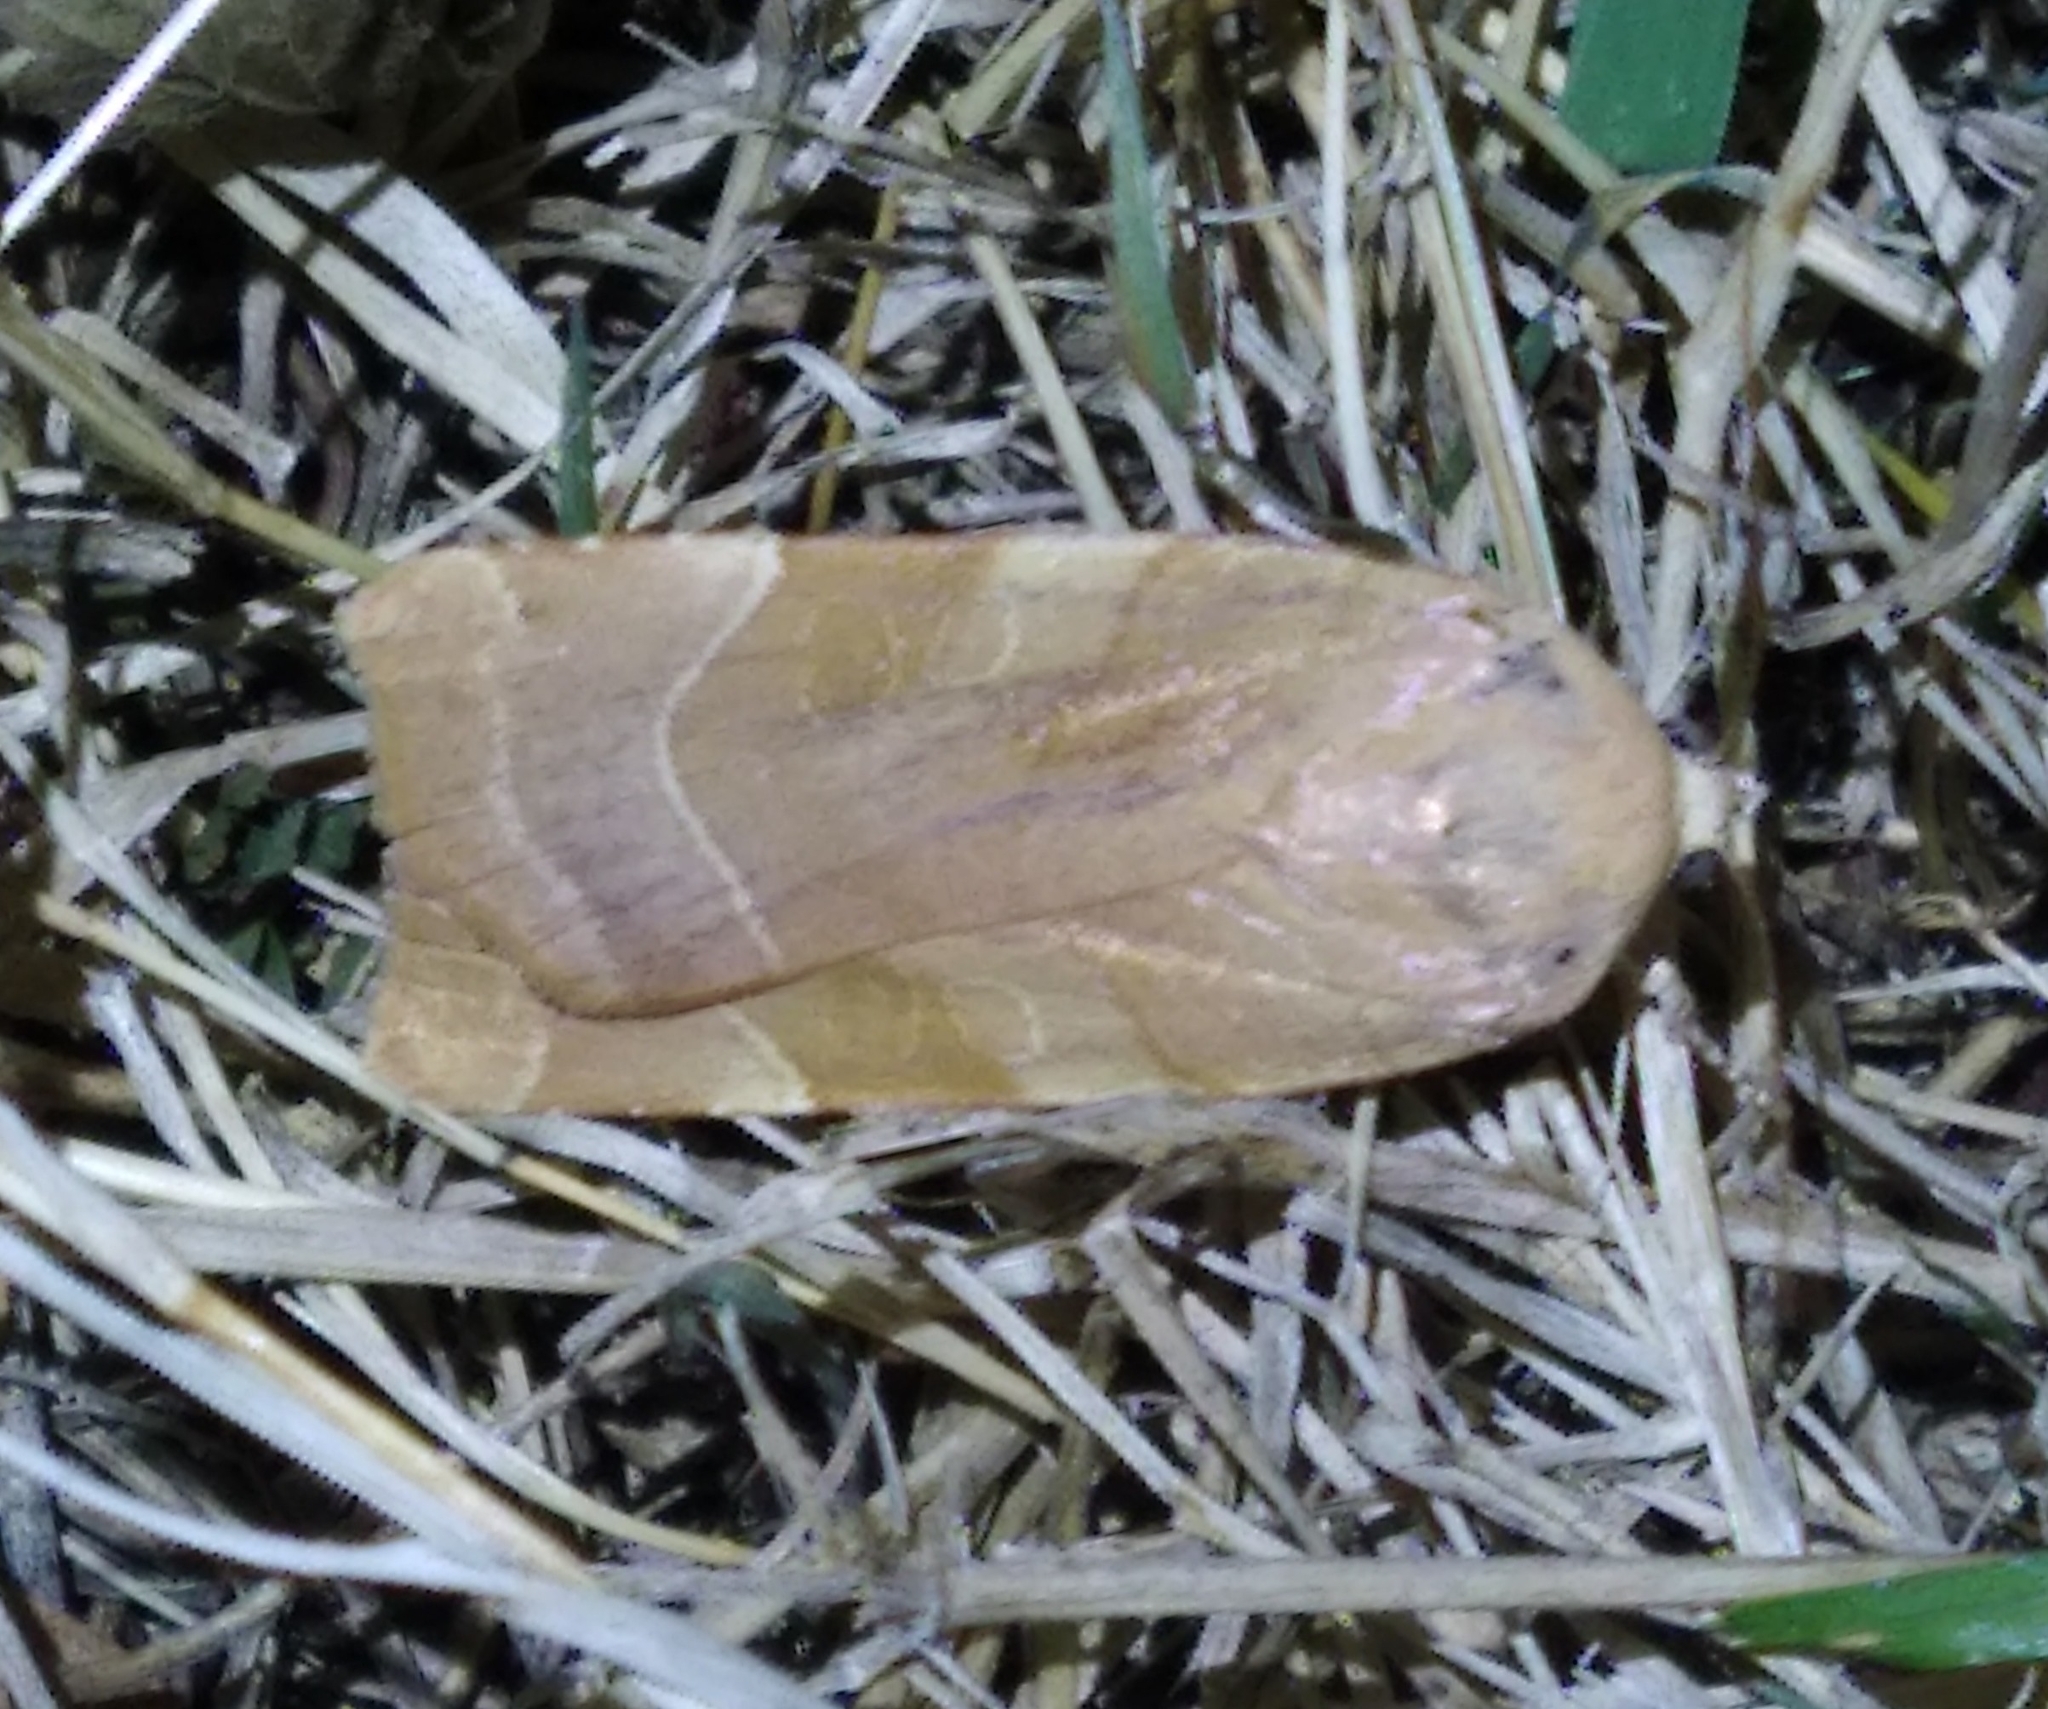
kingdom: Animalia
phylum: Arthropoda
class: Insecta
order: Lepidoptera
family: Noctuidae
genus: Noctua
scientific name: Noctua fimbriata
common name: Broad-bordered yellow underwing
